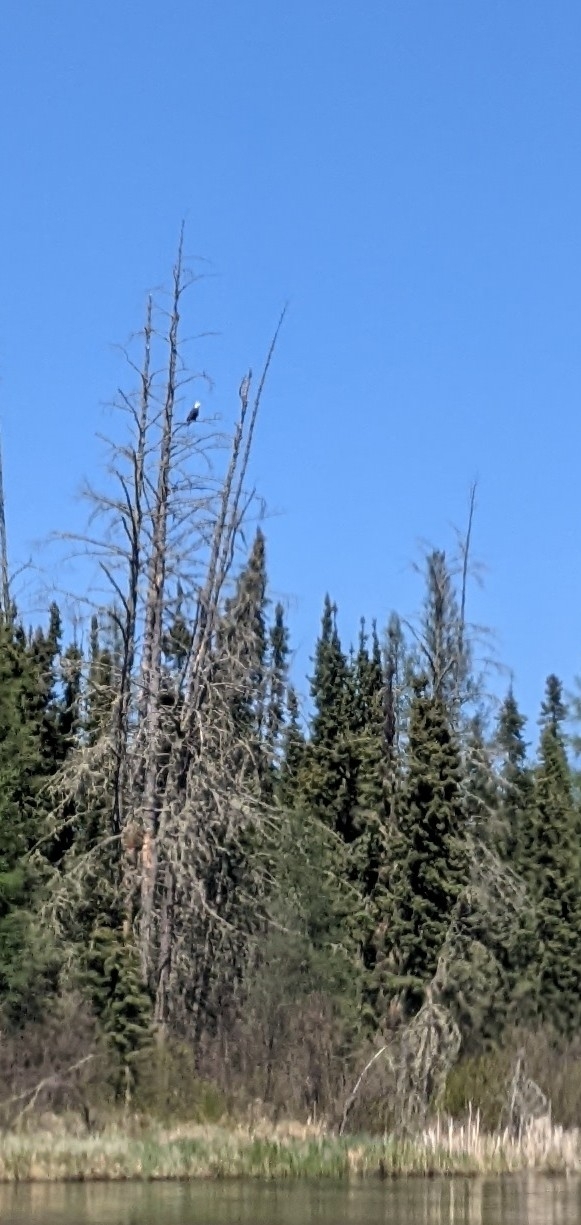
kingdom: Animalia
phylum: Chordata
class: Aves
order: Accipitriformes
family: Accipitridae
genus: Haliaeetus
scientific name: Haliaeetus leucocephalus
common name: Bald eagle
